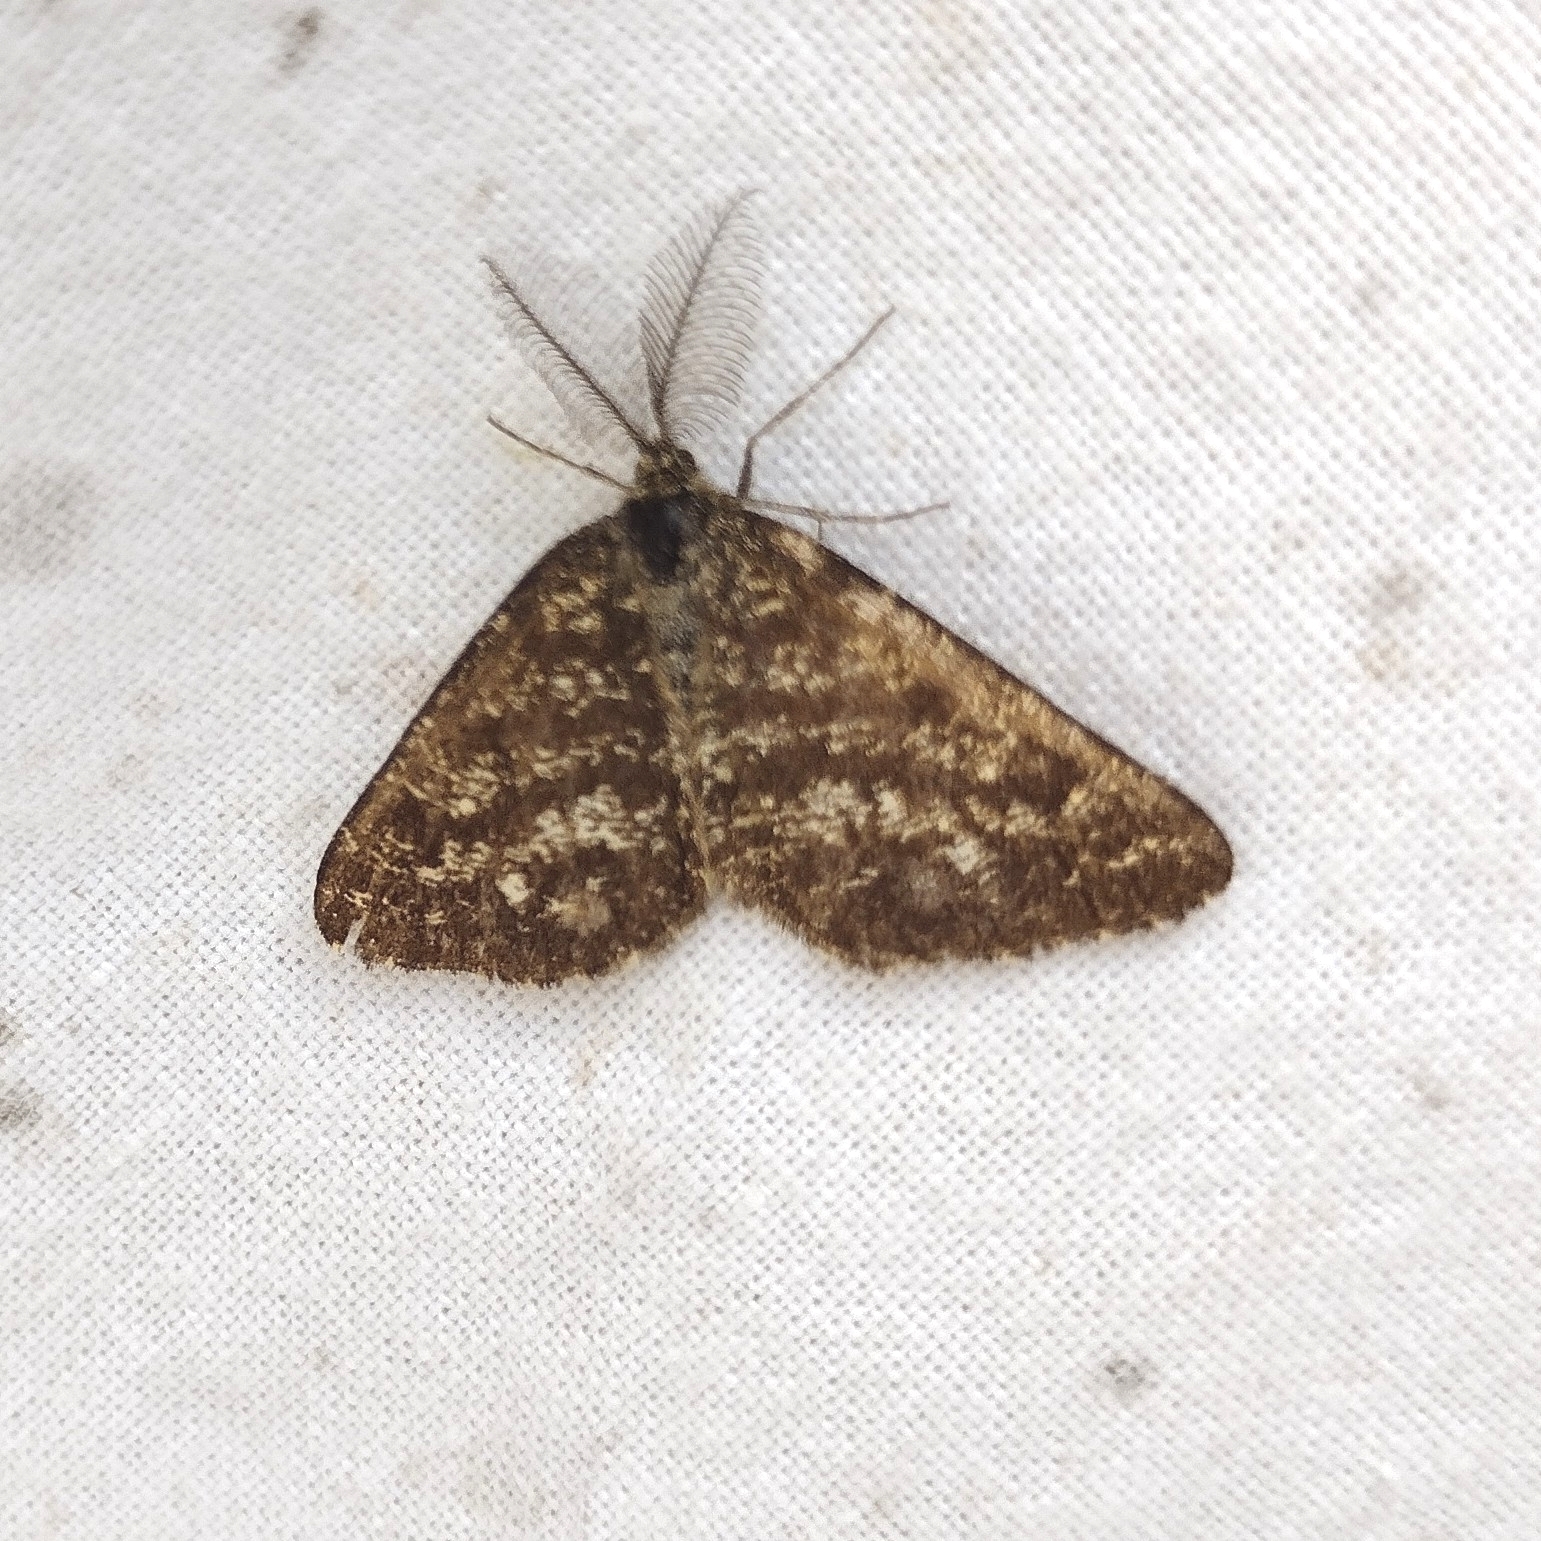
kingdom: Animalia
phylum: Arthropoda
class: Insecta
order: Lepidoptera
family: Geometridae
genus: Ematurga
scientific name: Ematurga atomaria
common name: Common heath
